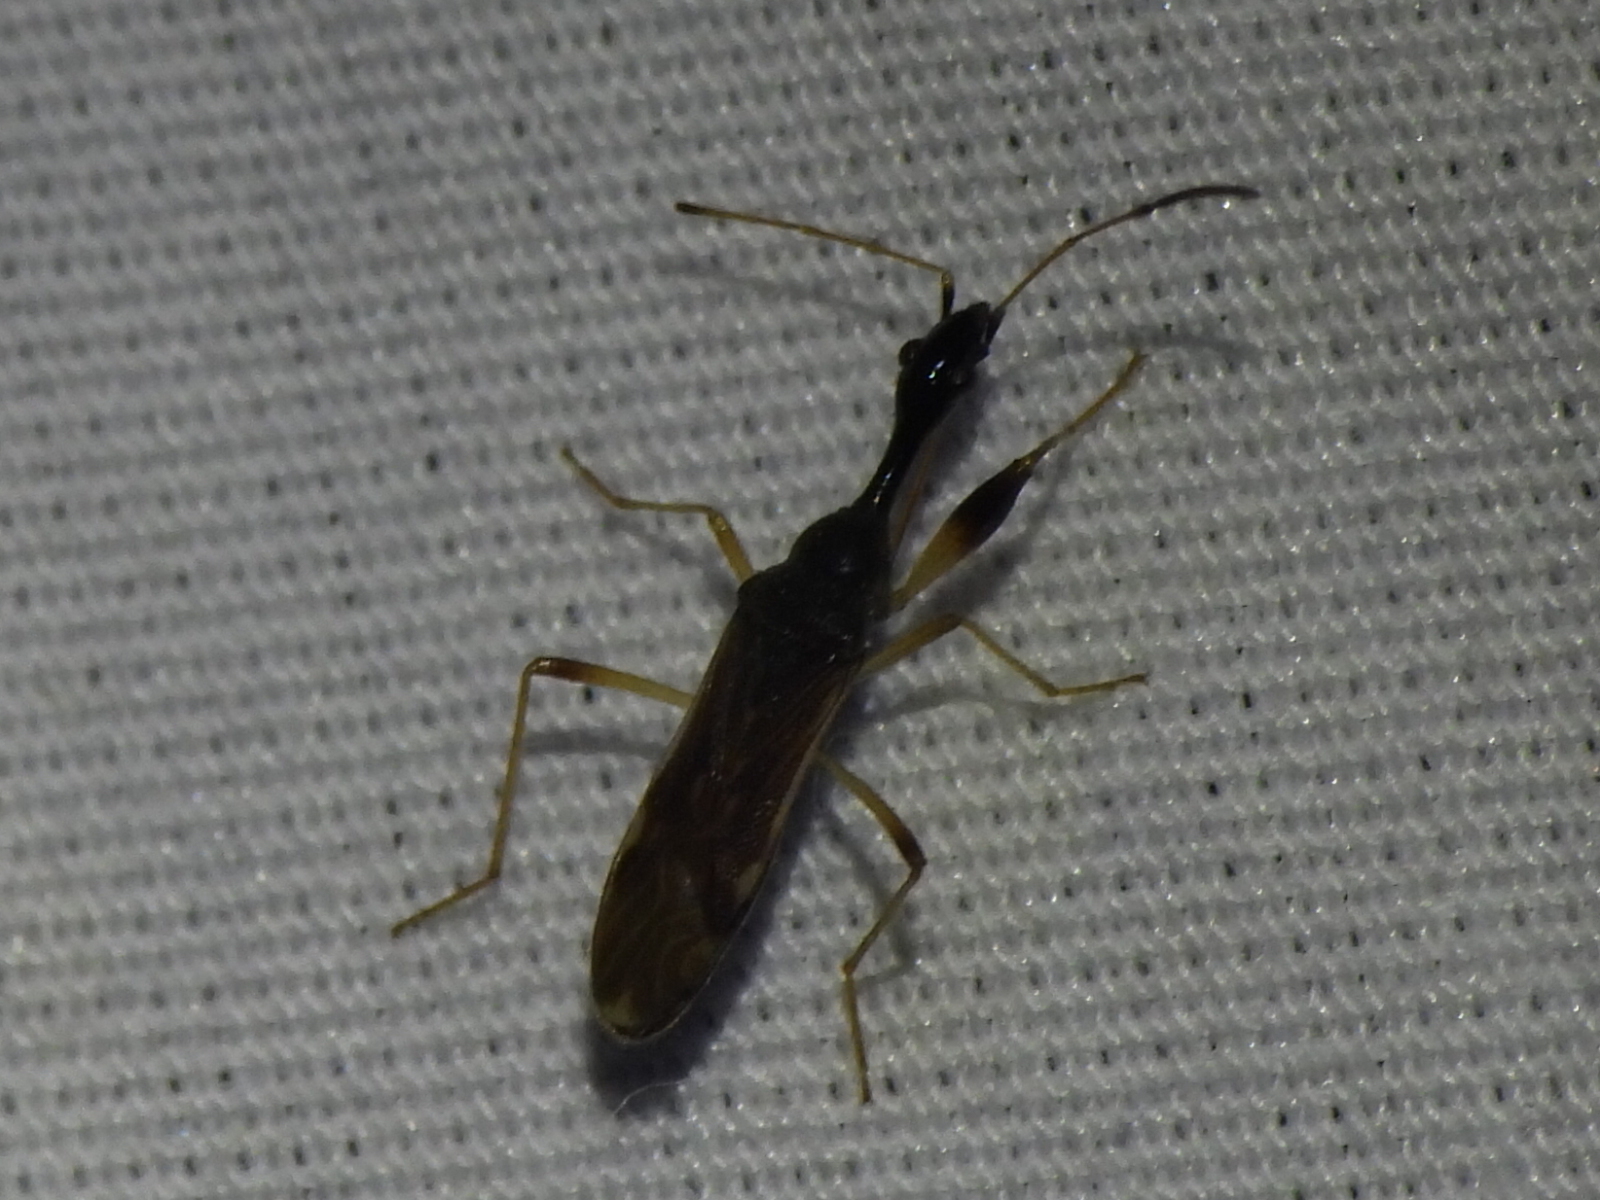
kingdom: Animalia
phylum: Arthropoda
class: Insecta
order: Hemiptera
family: Rhyparochromidae
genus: Myodocha
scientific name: Myodocha serripes
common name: Long-necked seed bug
